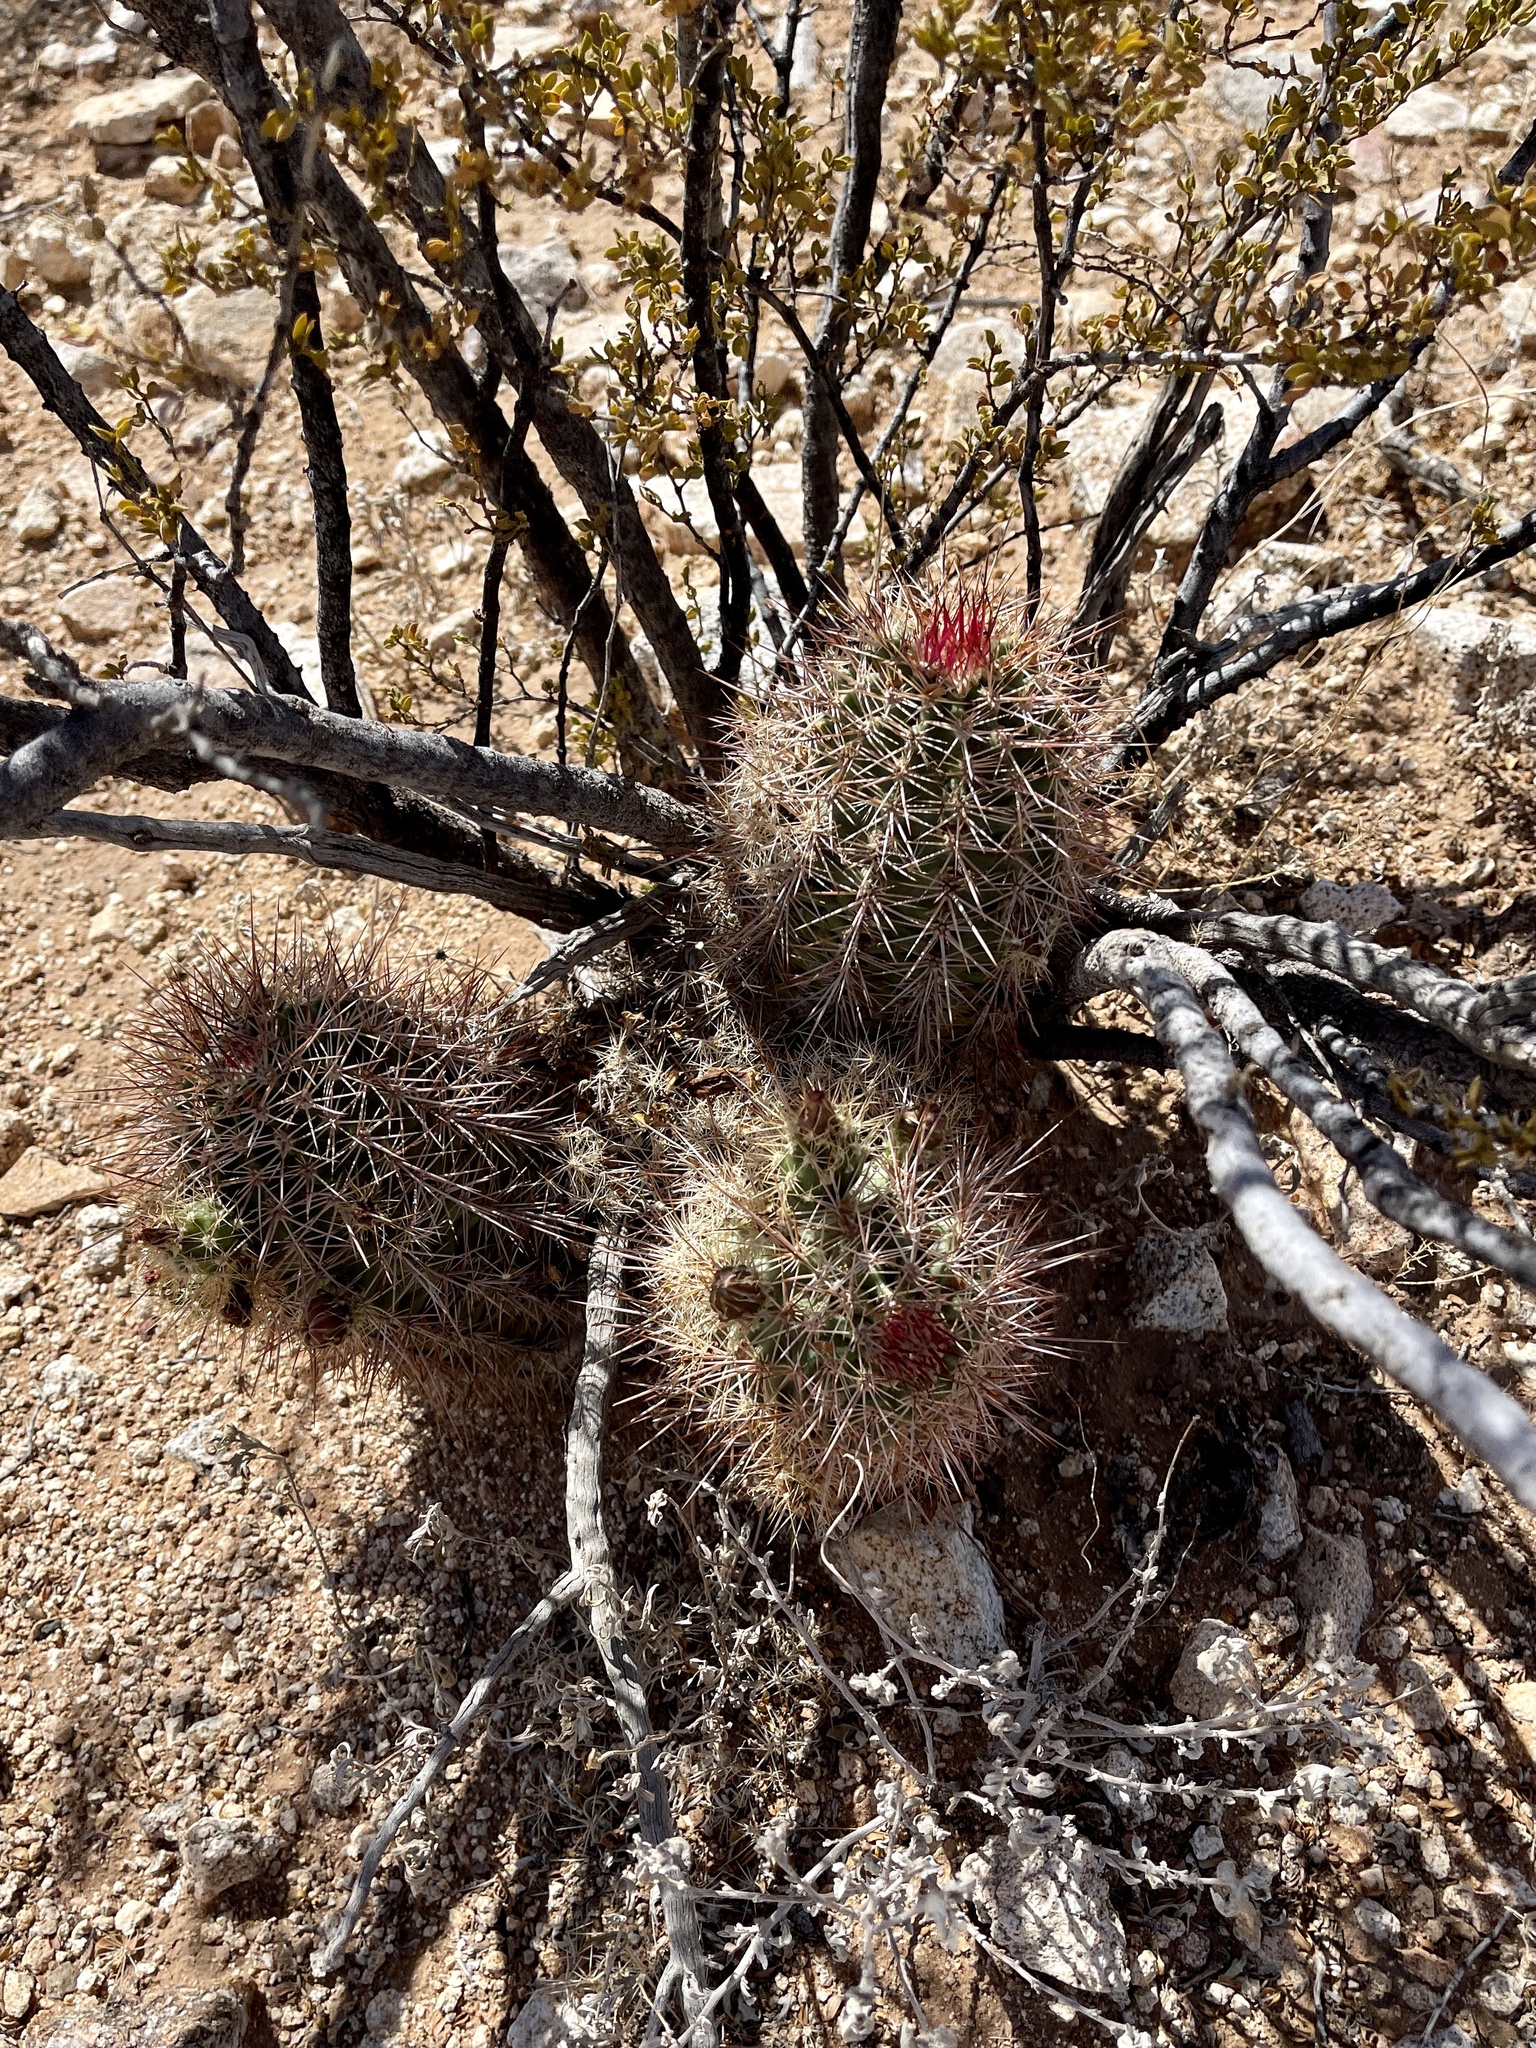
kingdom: Plantae
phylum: Tracheophyta
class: Magnoliopsida
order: Caryophyllales
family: Cactaceae
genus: Echinocereus
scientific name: Echinocereus coccineus
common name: Scarlet hedgehog cactus
